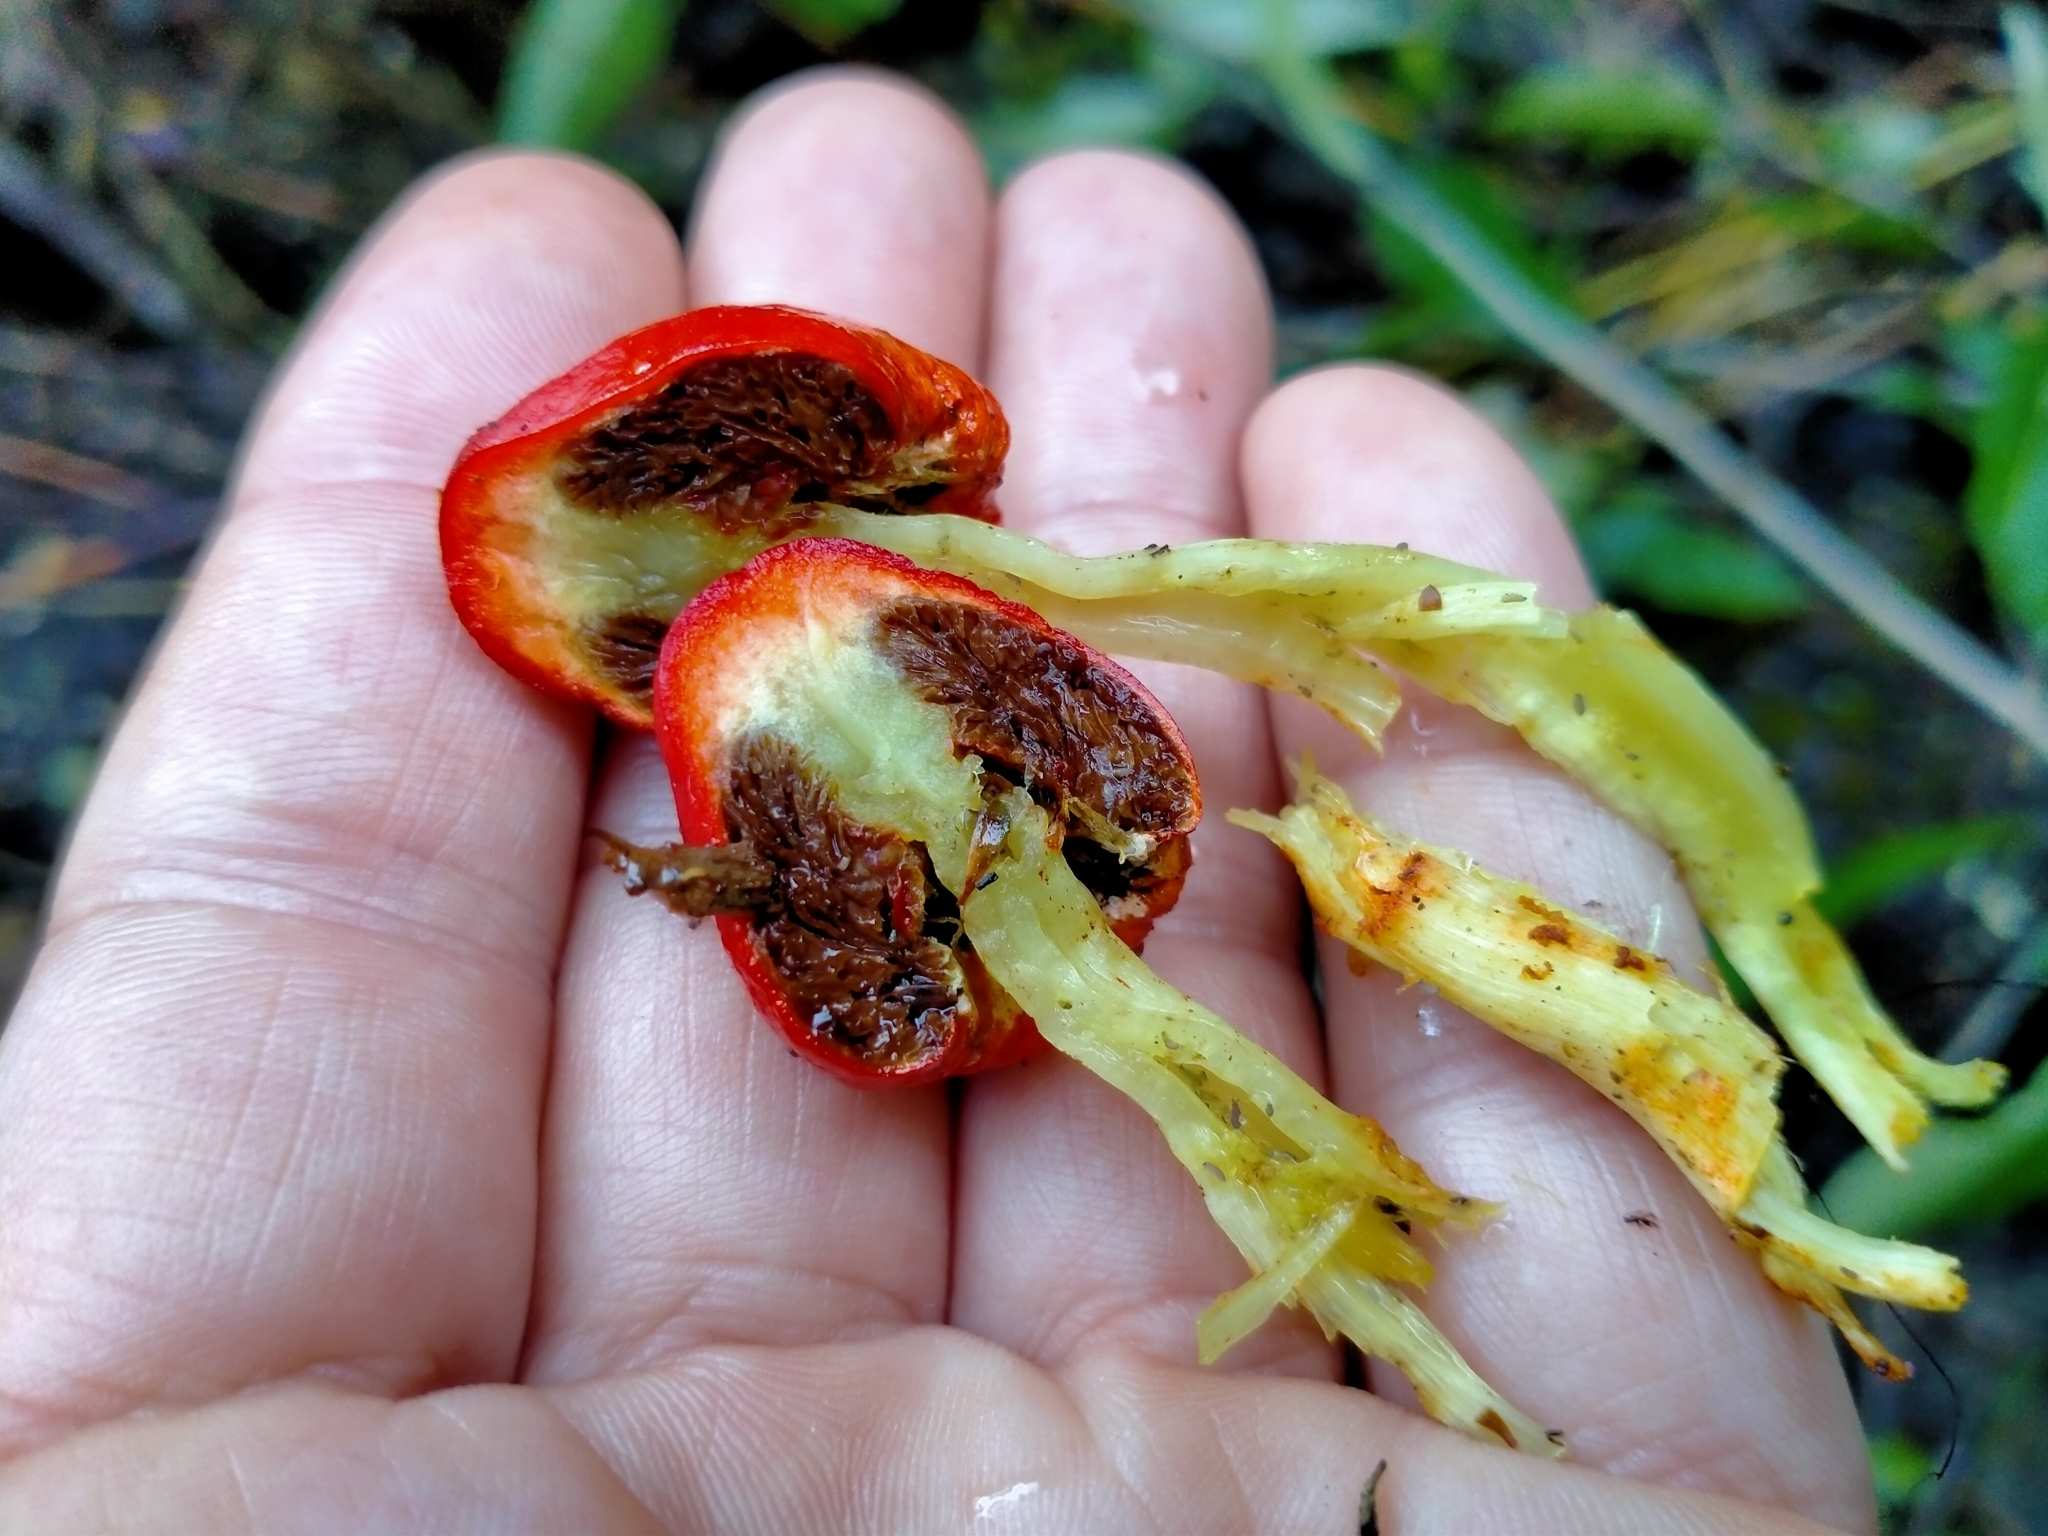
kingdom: Fungi
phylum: Basidiomycota
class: Agaricomycetes
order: Agaricales
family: Strophariaceae
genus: Leratiomyces
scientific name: Leratiomyces erythrocephalus
